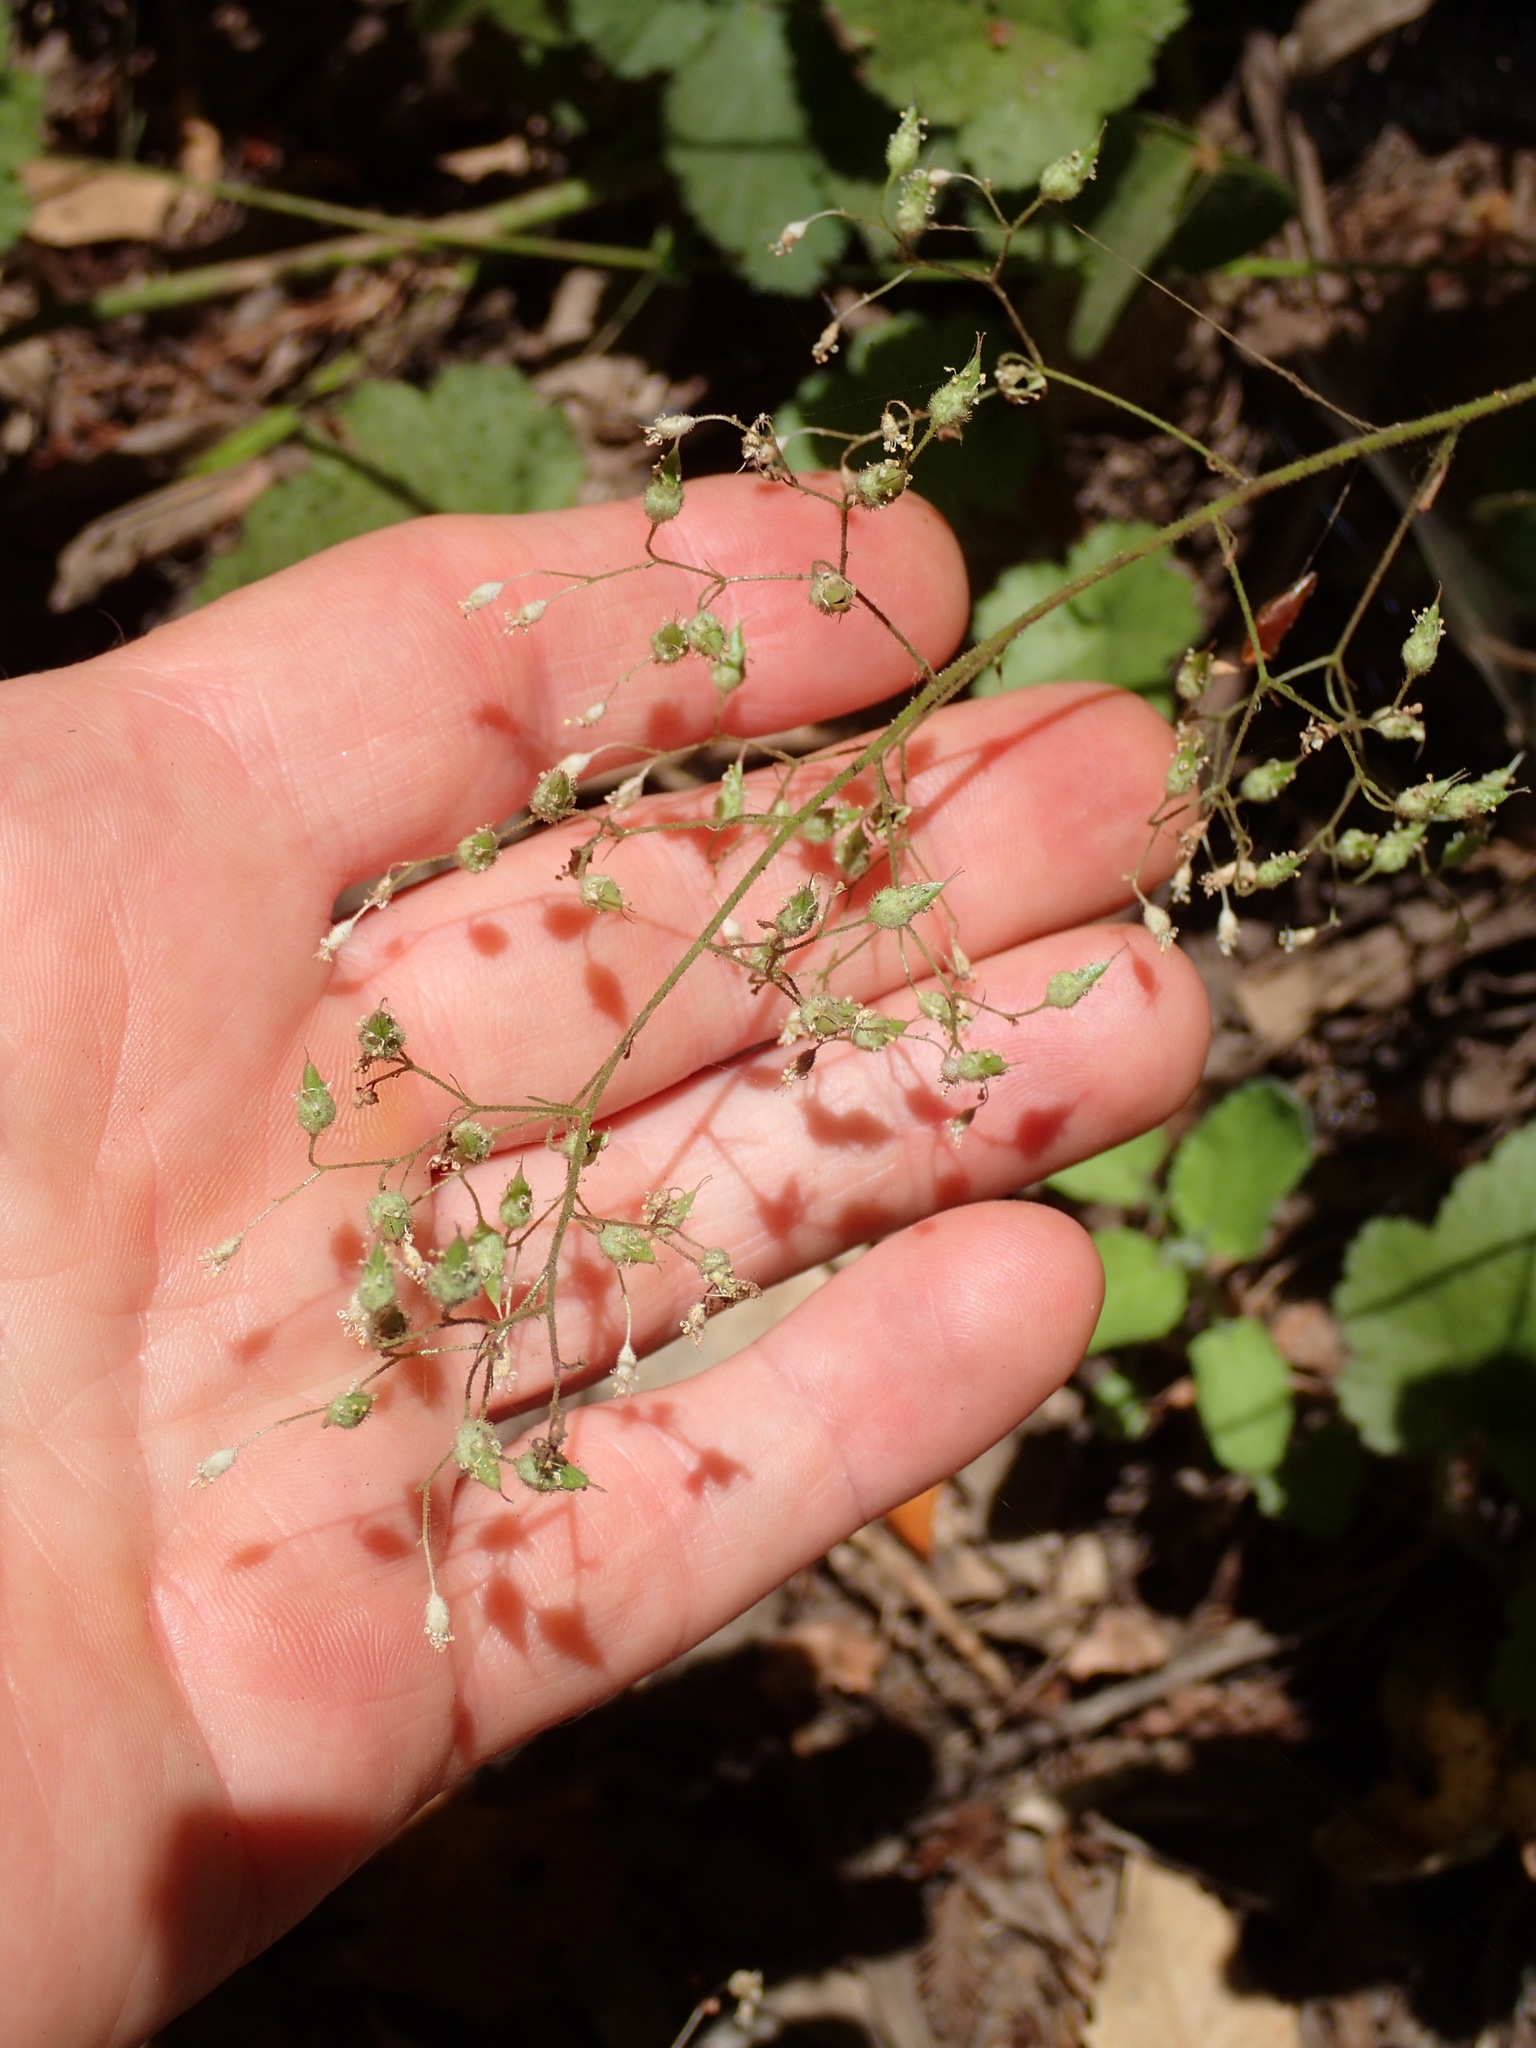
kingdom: Plantae
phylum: Tracheophyta
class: Magnoliopsida
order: Saxifragales
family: Saxifragaceae
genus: Heuchera
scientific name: Heuchera micrantha
